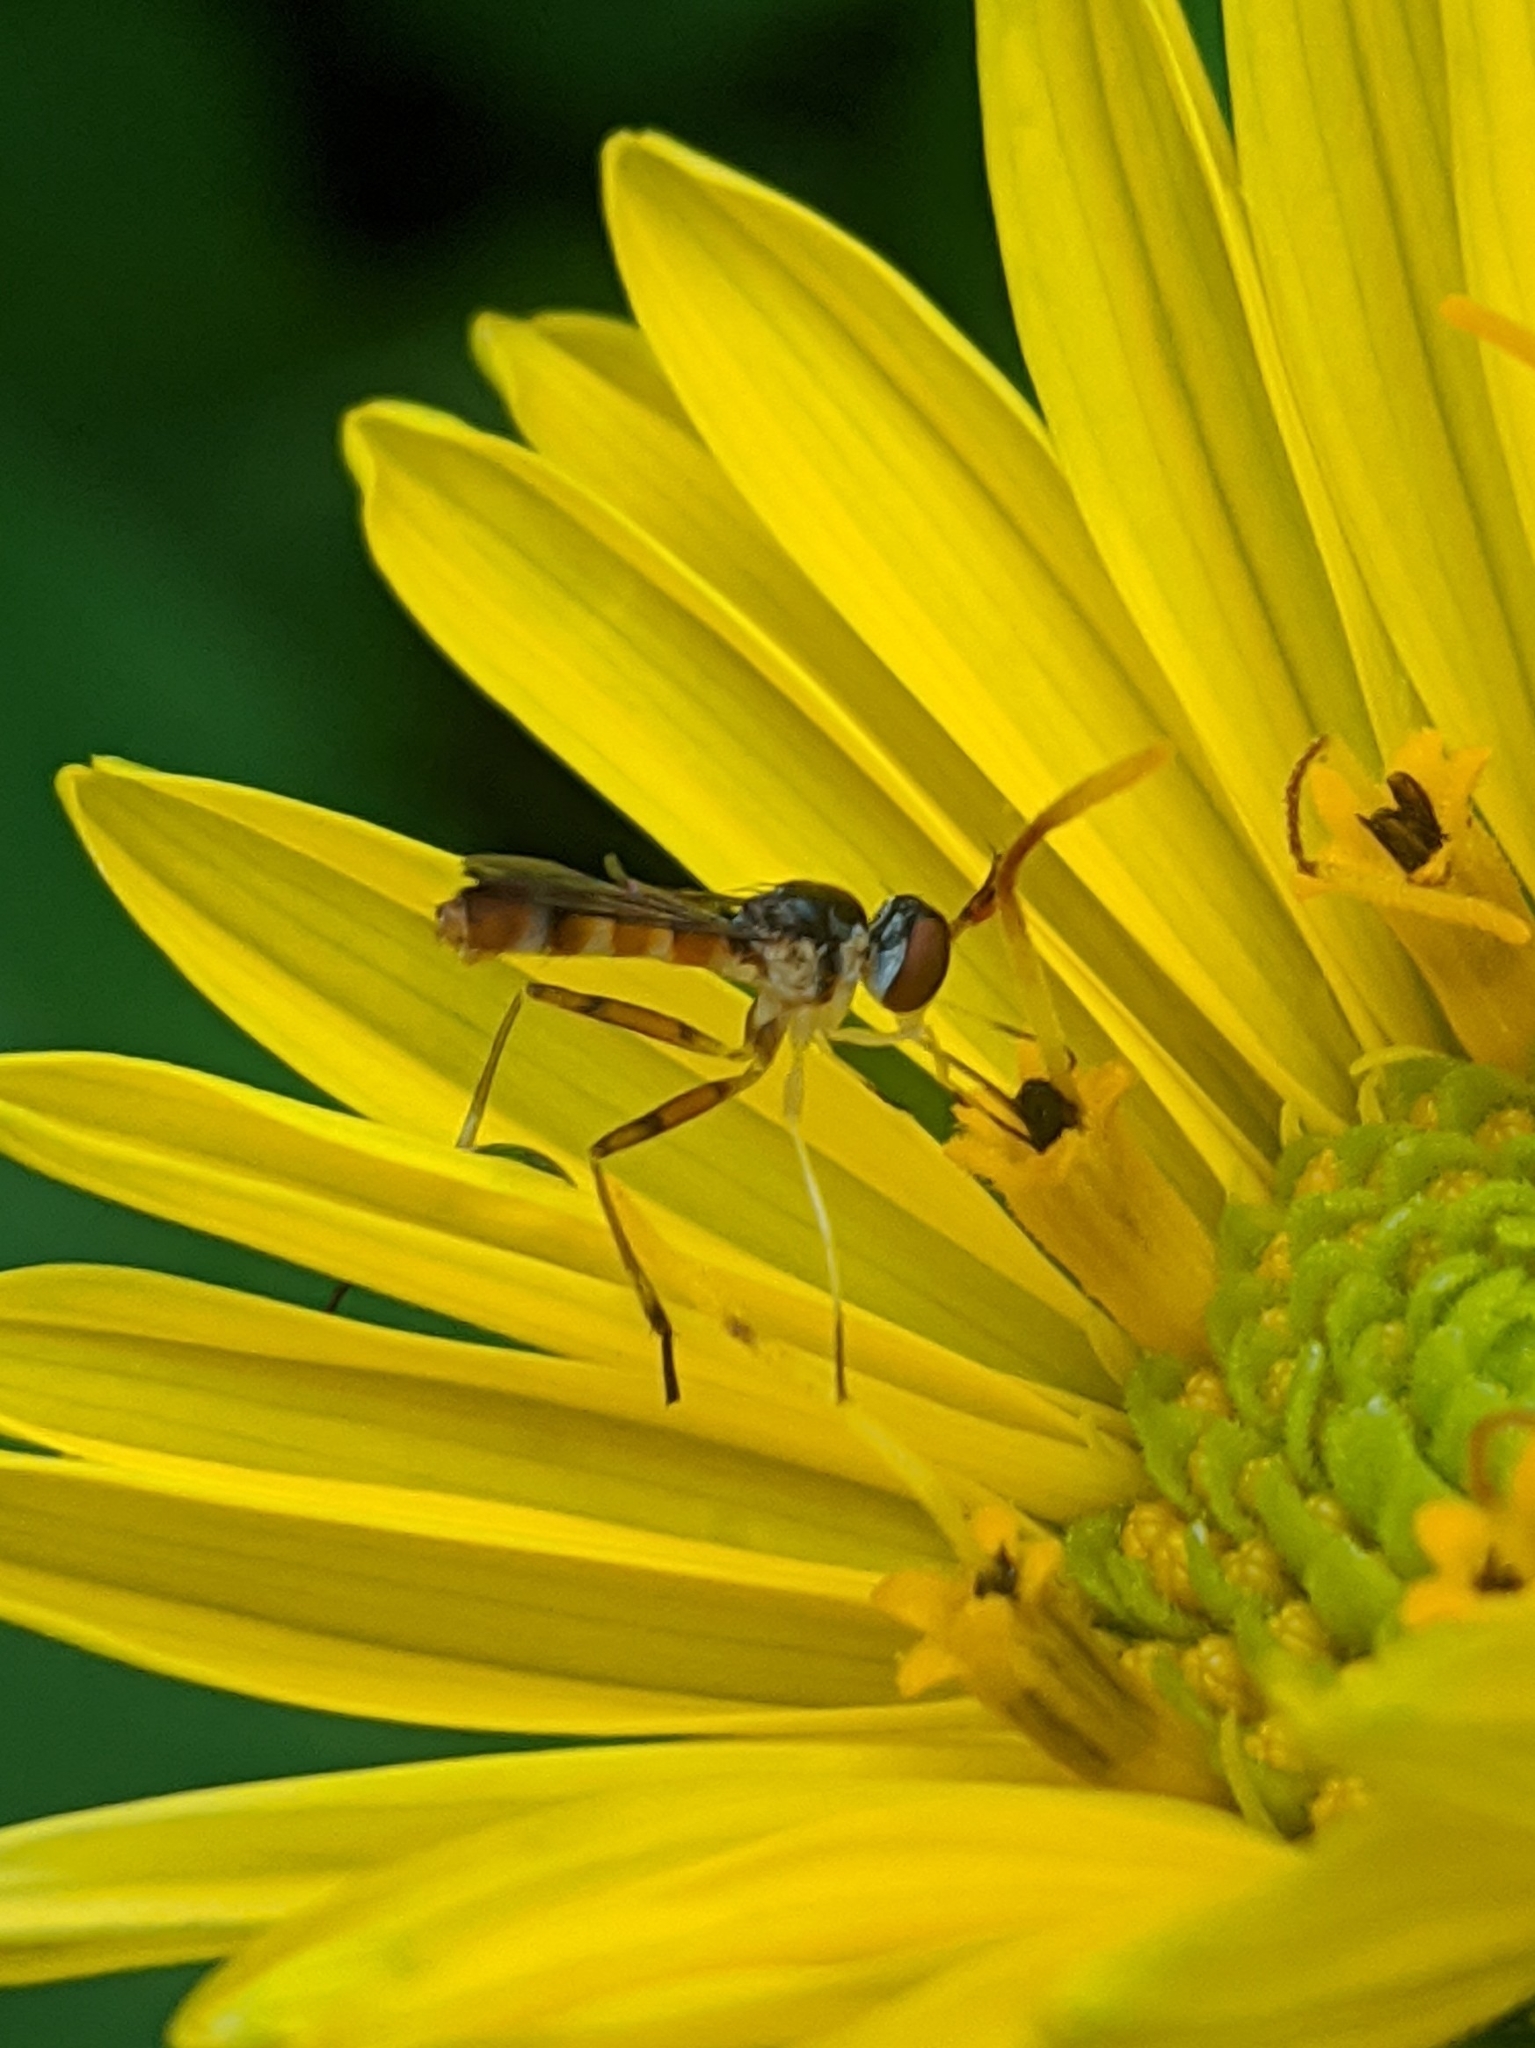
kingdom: Animalia
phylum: Arthropoda
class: Insecta
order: Diptera
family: Conopidae
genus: Stylogaster
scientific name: Stylogaster neglecta
